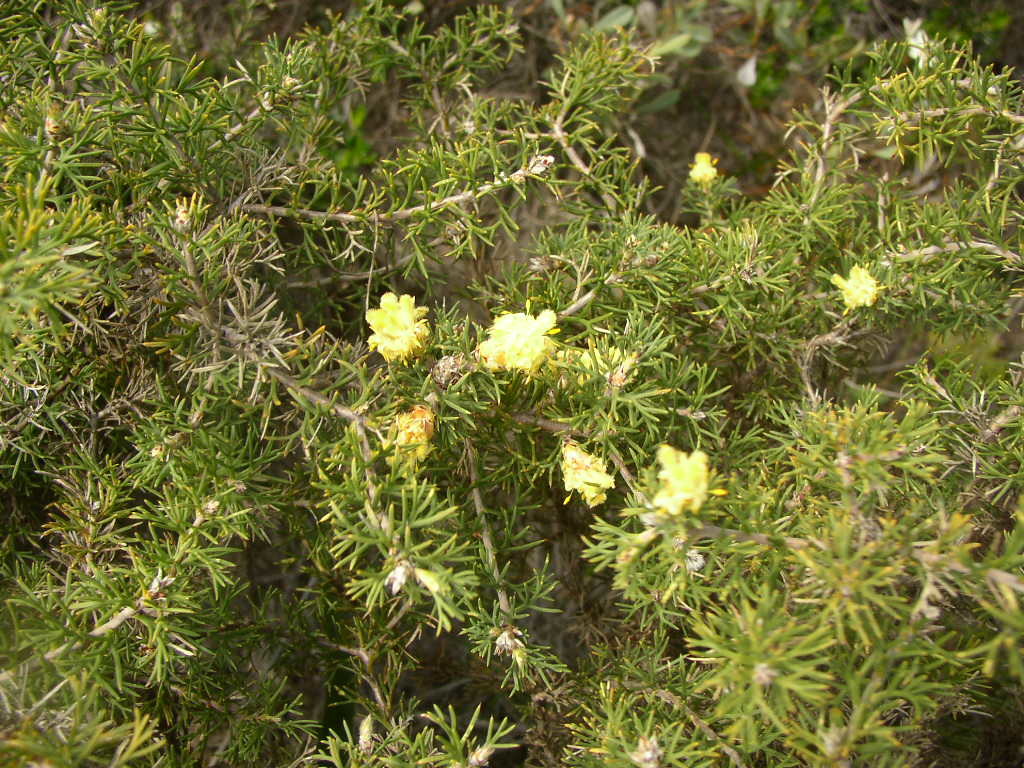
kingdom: Plantae
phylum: Tracheophyta
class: Magnoliopsida
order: Proteales
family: Proteaceae
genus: Petrophile
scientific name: Petrophile chrysantha
